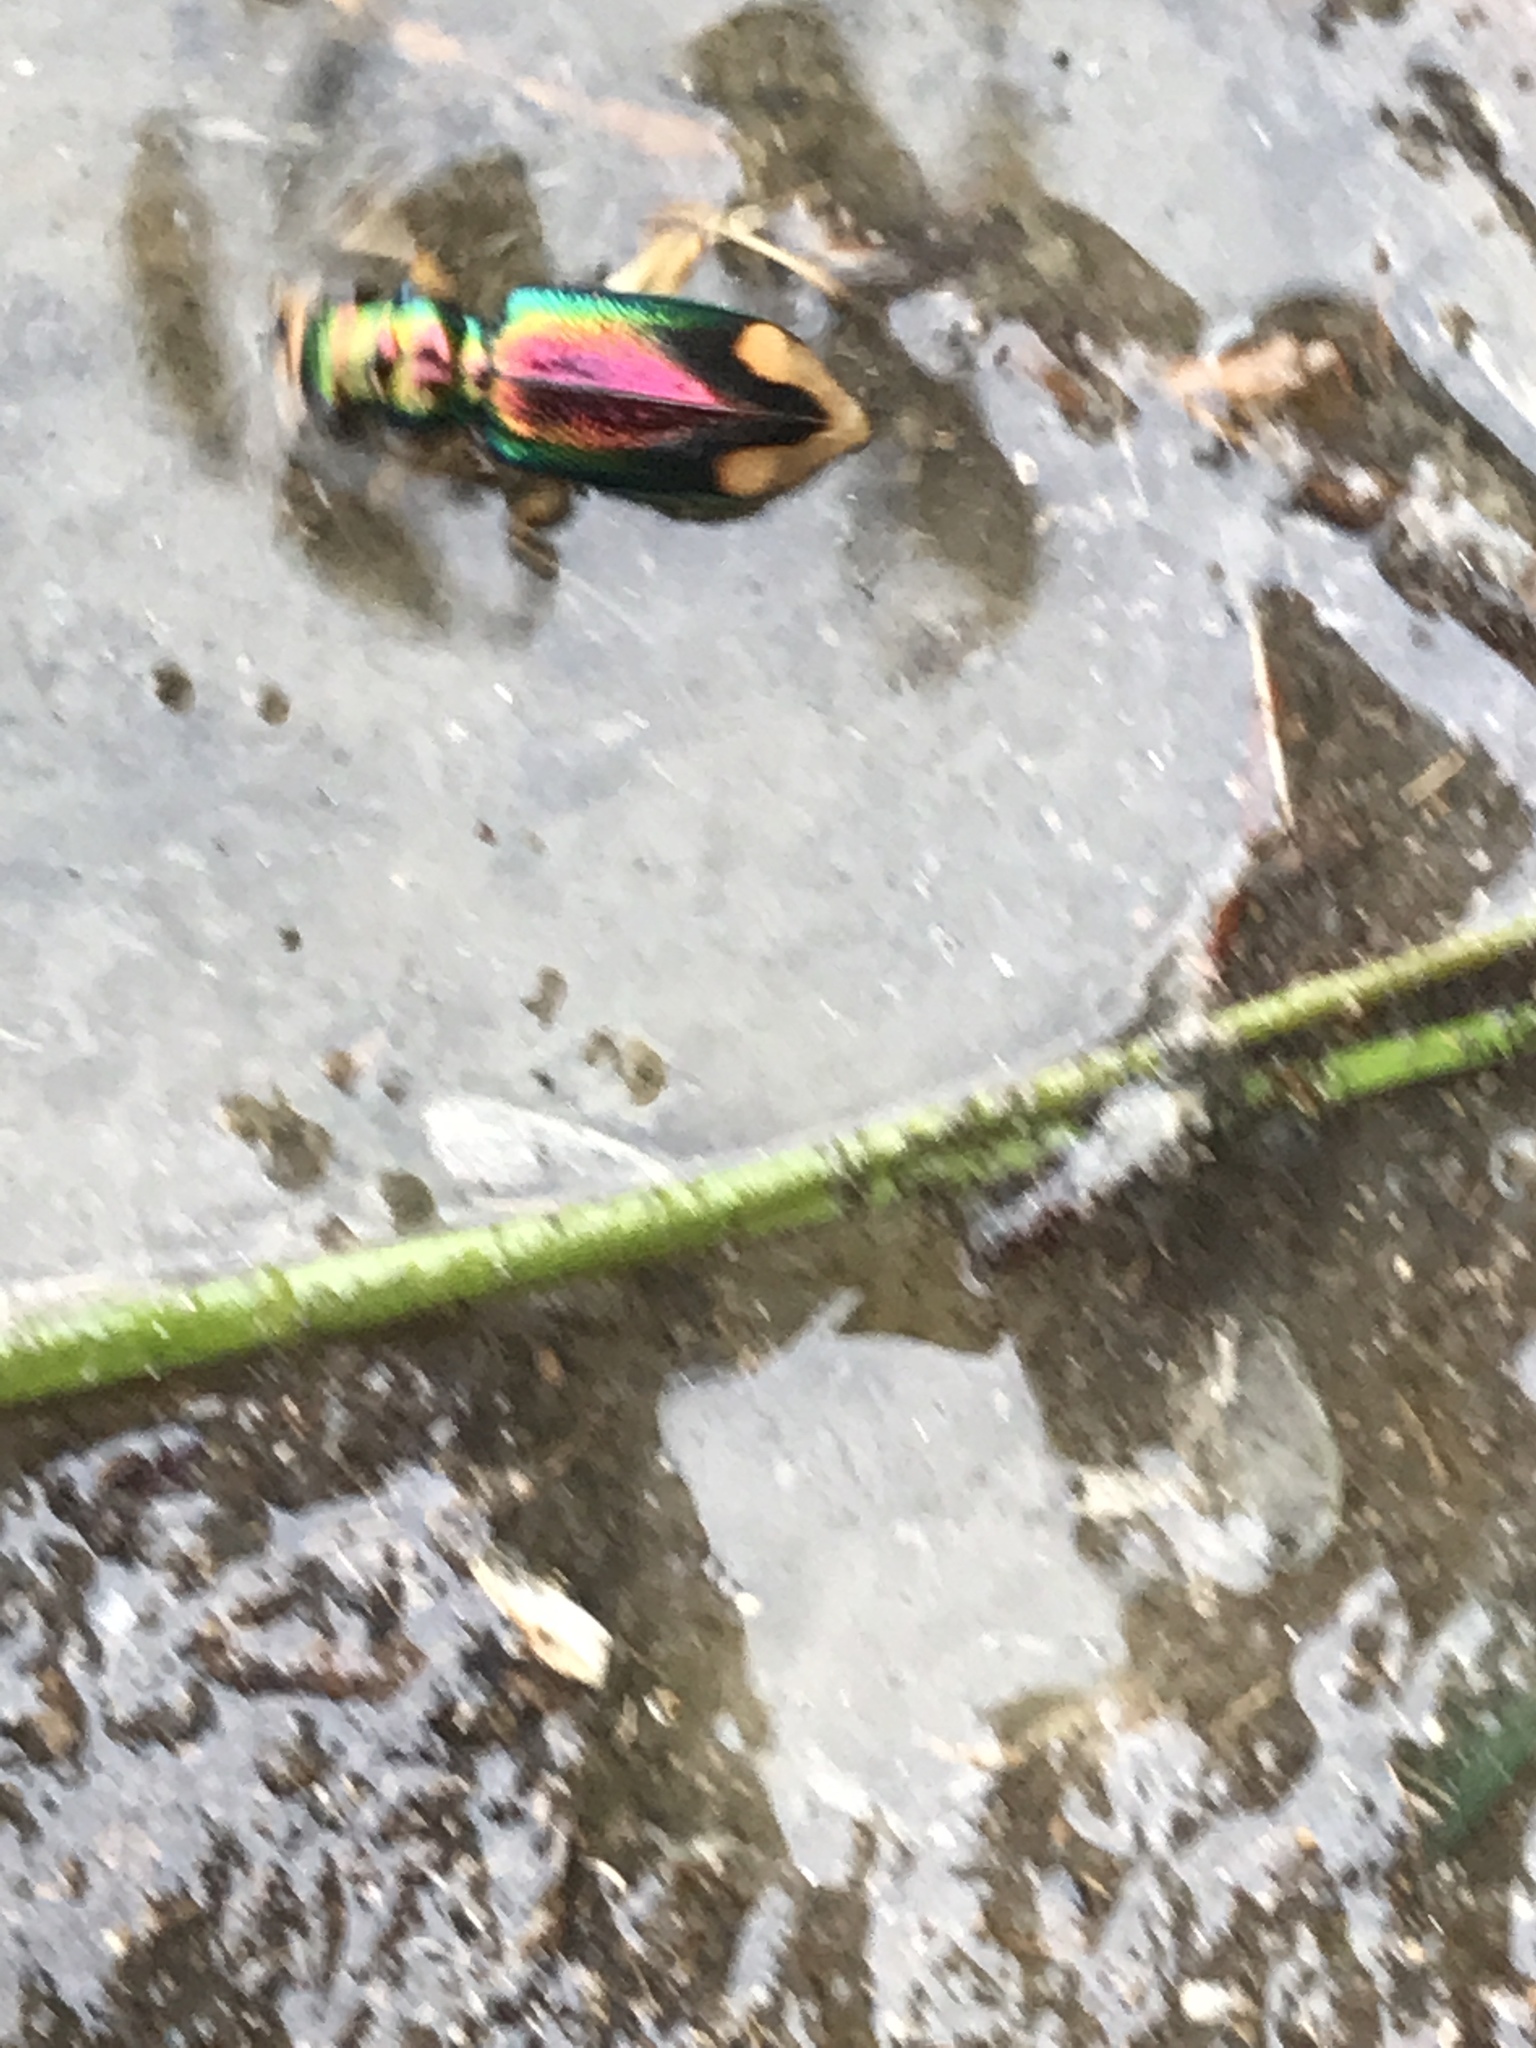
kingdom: Animalia
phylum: Arthropoda
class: Insecta
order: Coleoptera
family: Carabidae
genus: Tetracha
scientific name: Tetracha carolina
